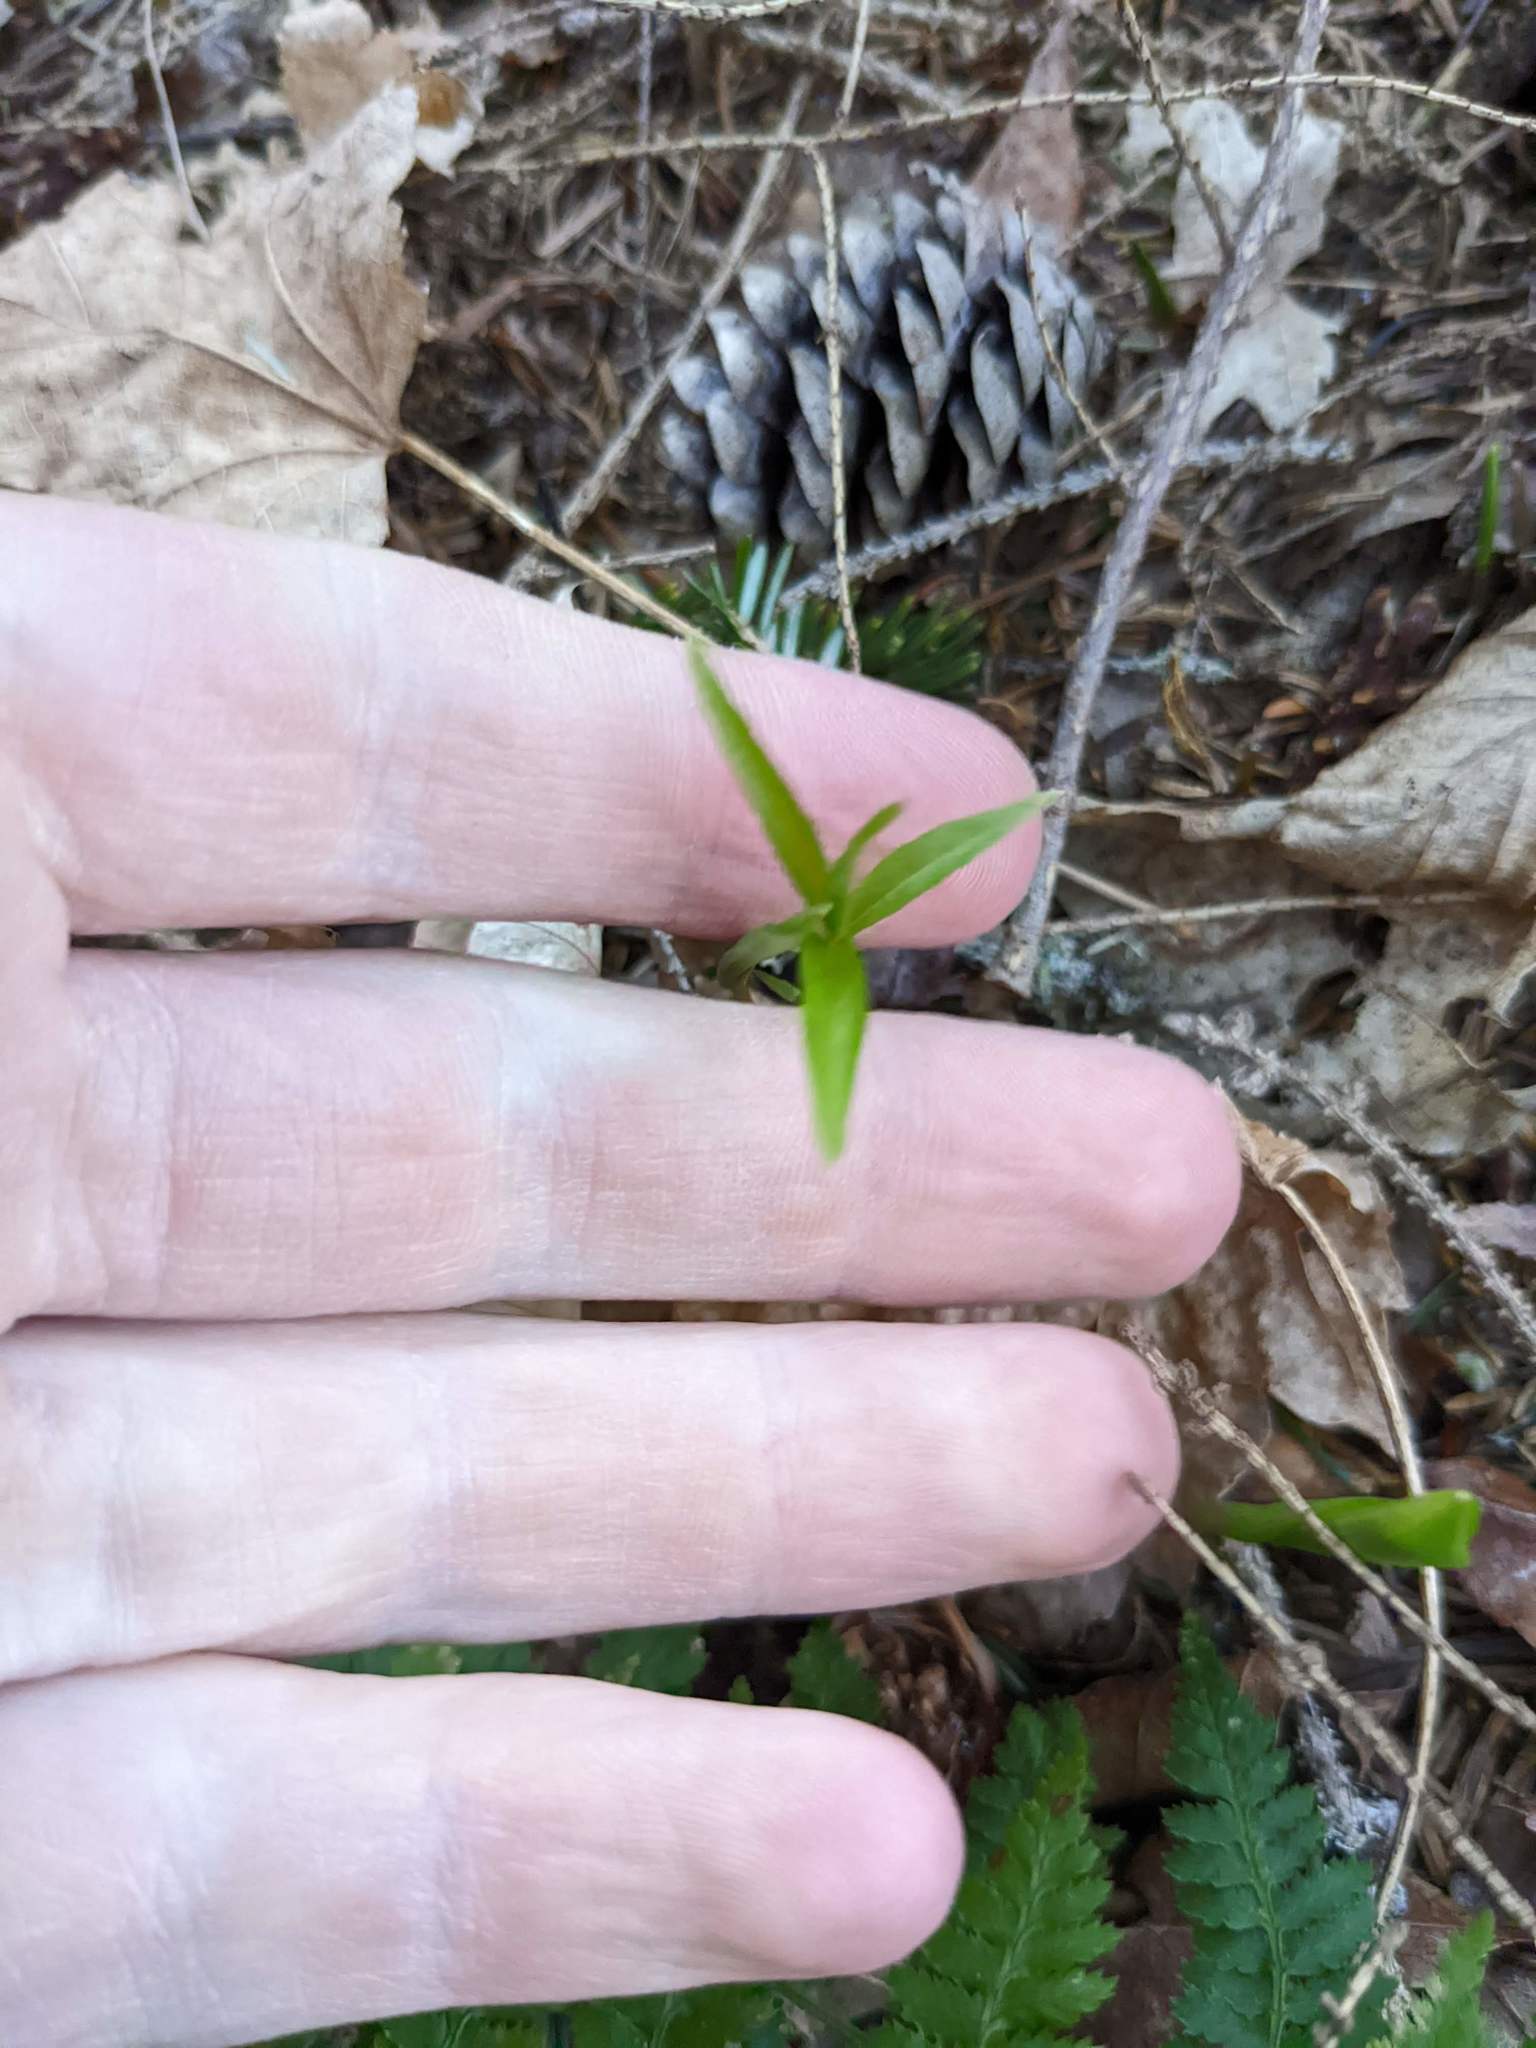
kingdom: Plantae
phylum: Tracheophyta
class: Magnoliopsida
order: Ericales
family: Primulaceae
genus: Lysimachia
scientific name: Lysimachia borealis
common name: American starflower
